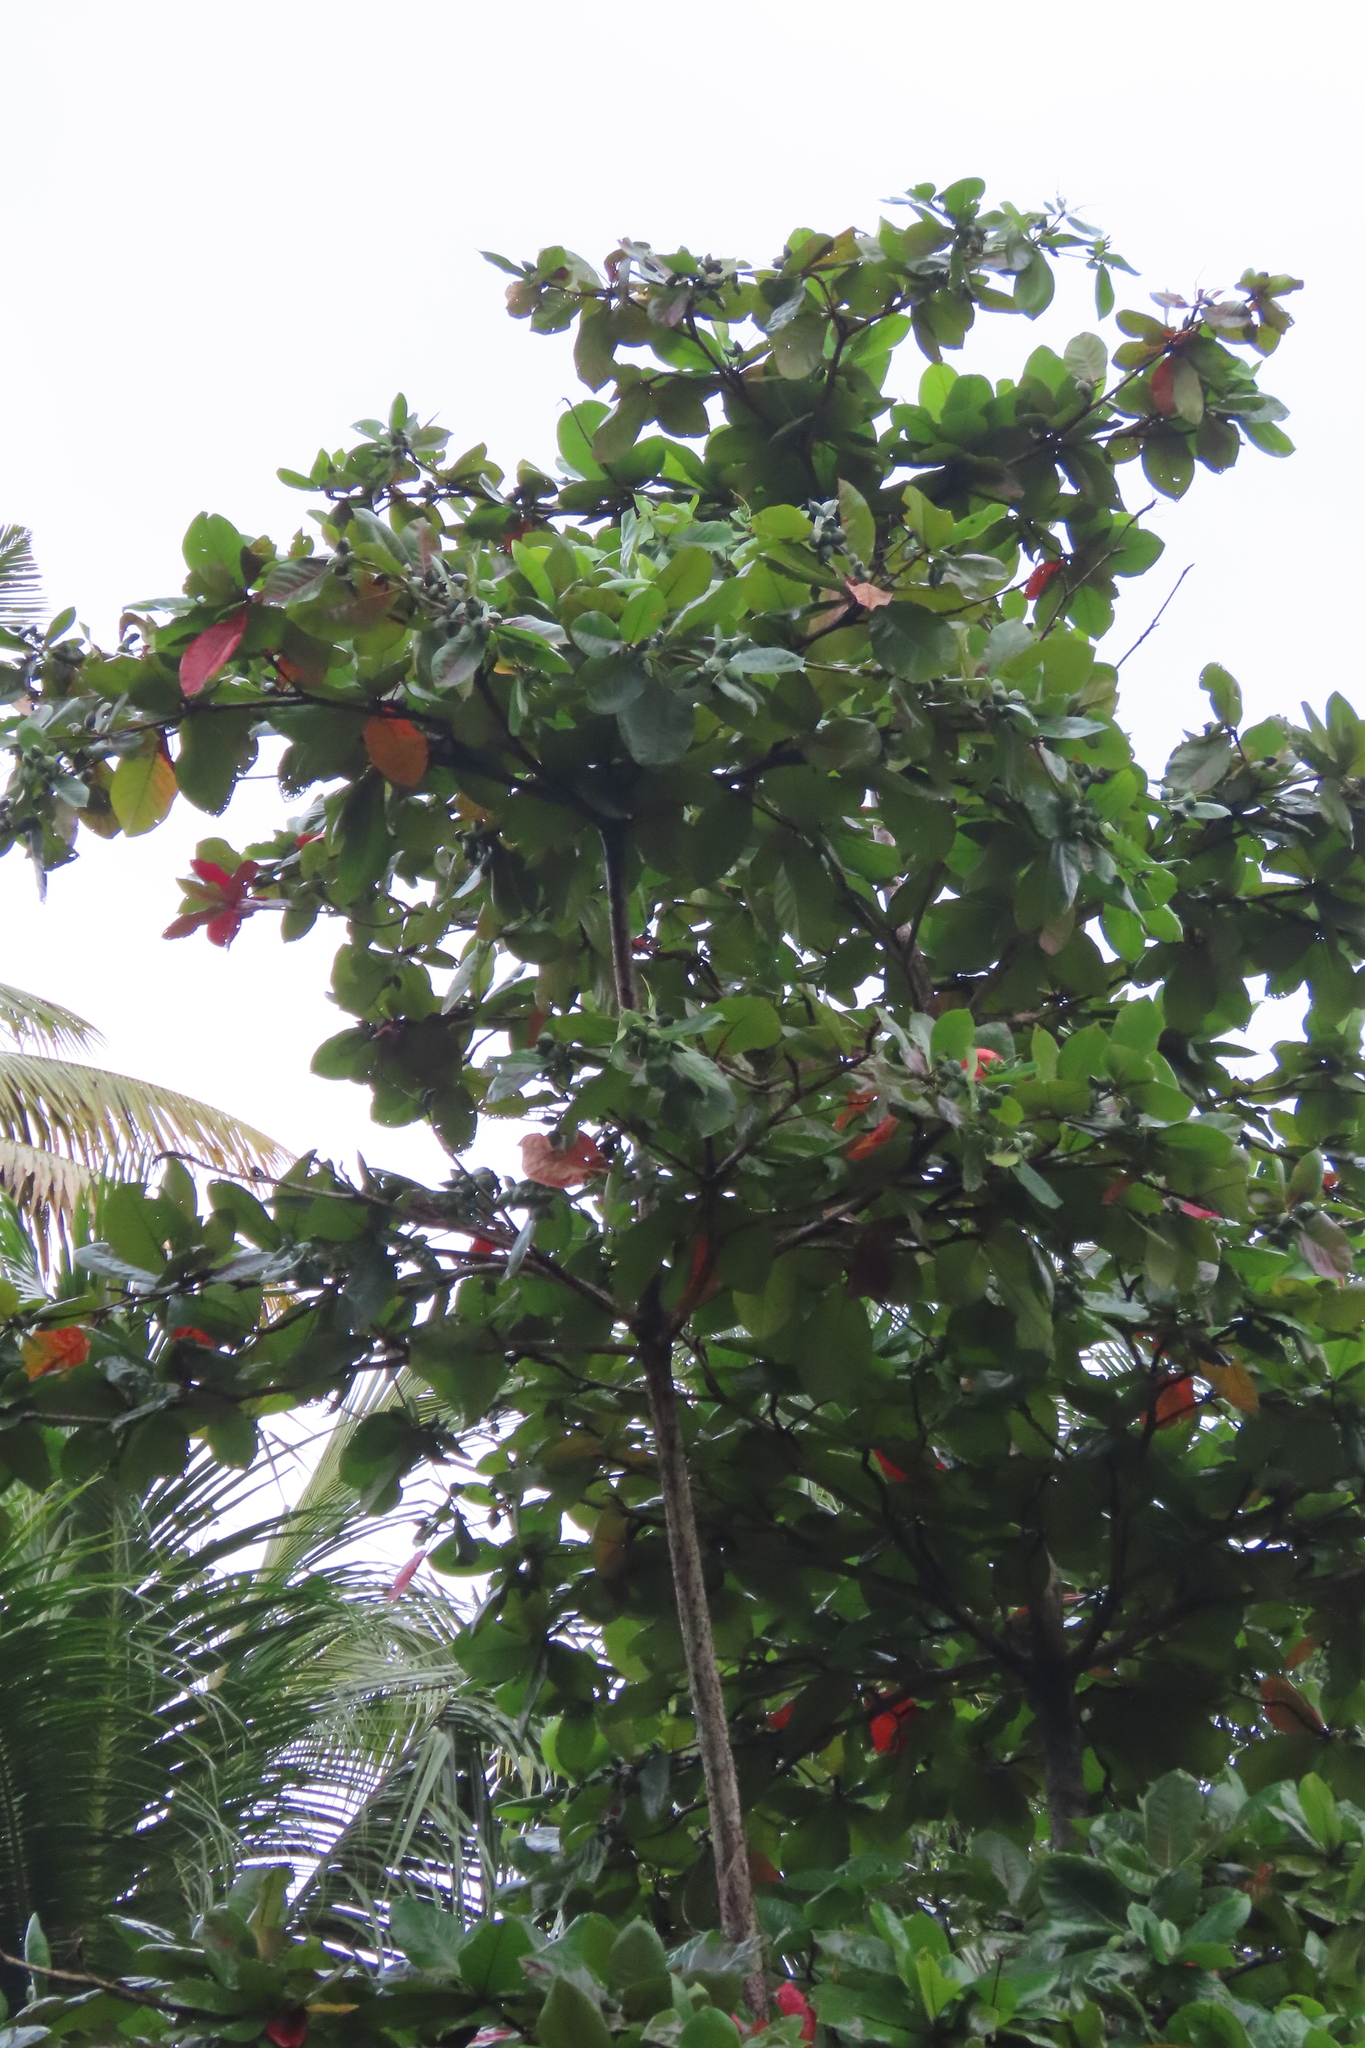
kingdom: Plantae
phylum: Tracheophyta
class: Magnoliopsida
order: Myrtales
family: Combretaceae
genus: Terminalia
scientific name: Terminalia catappa
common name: Tropical almond
